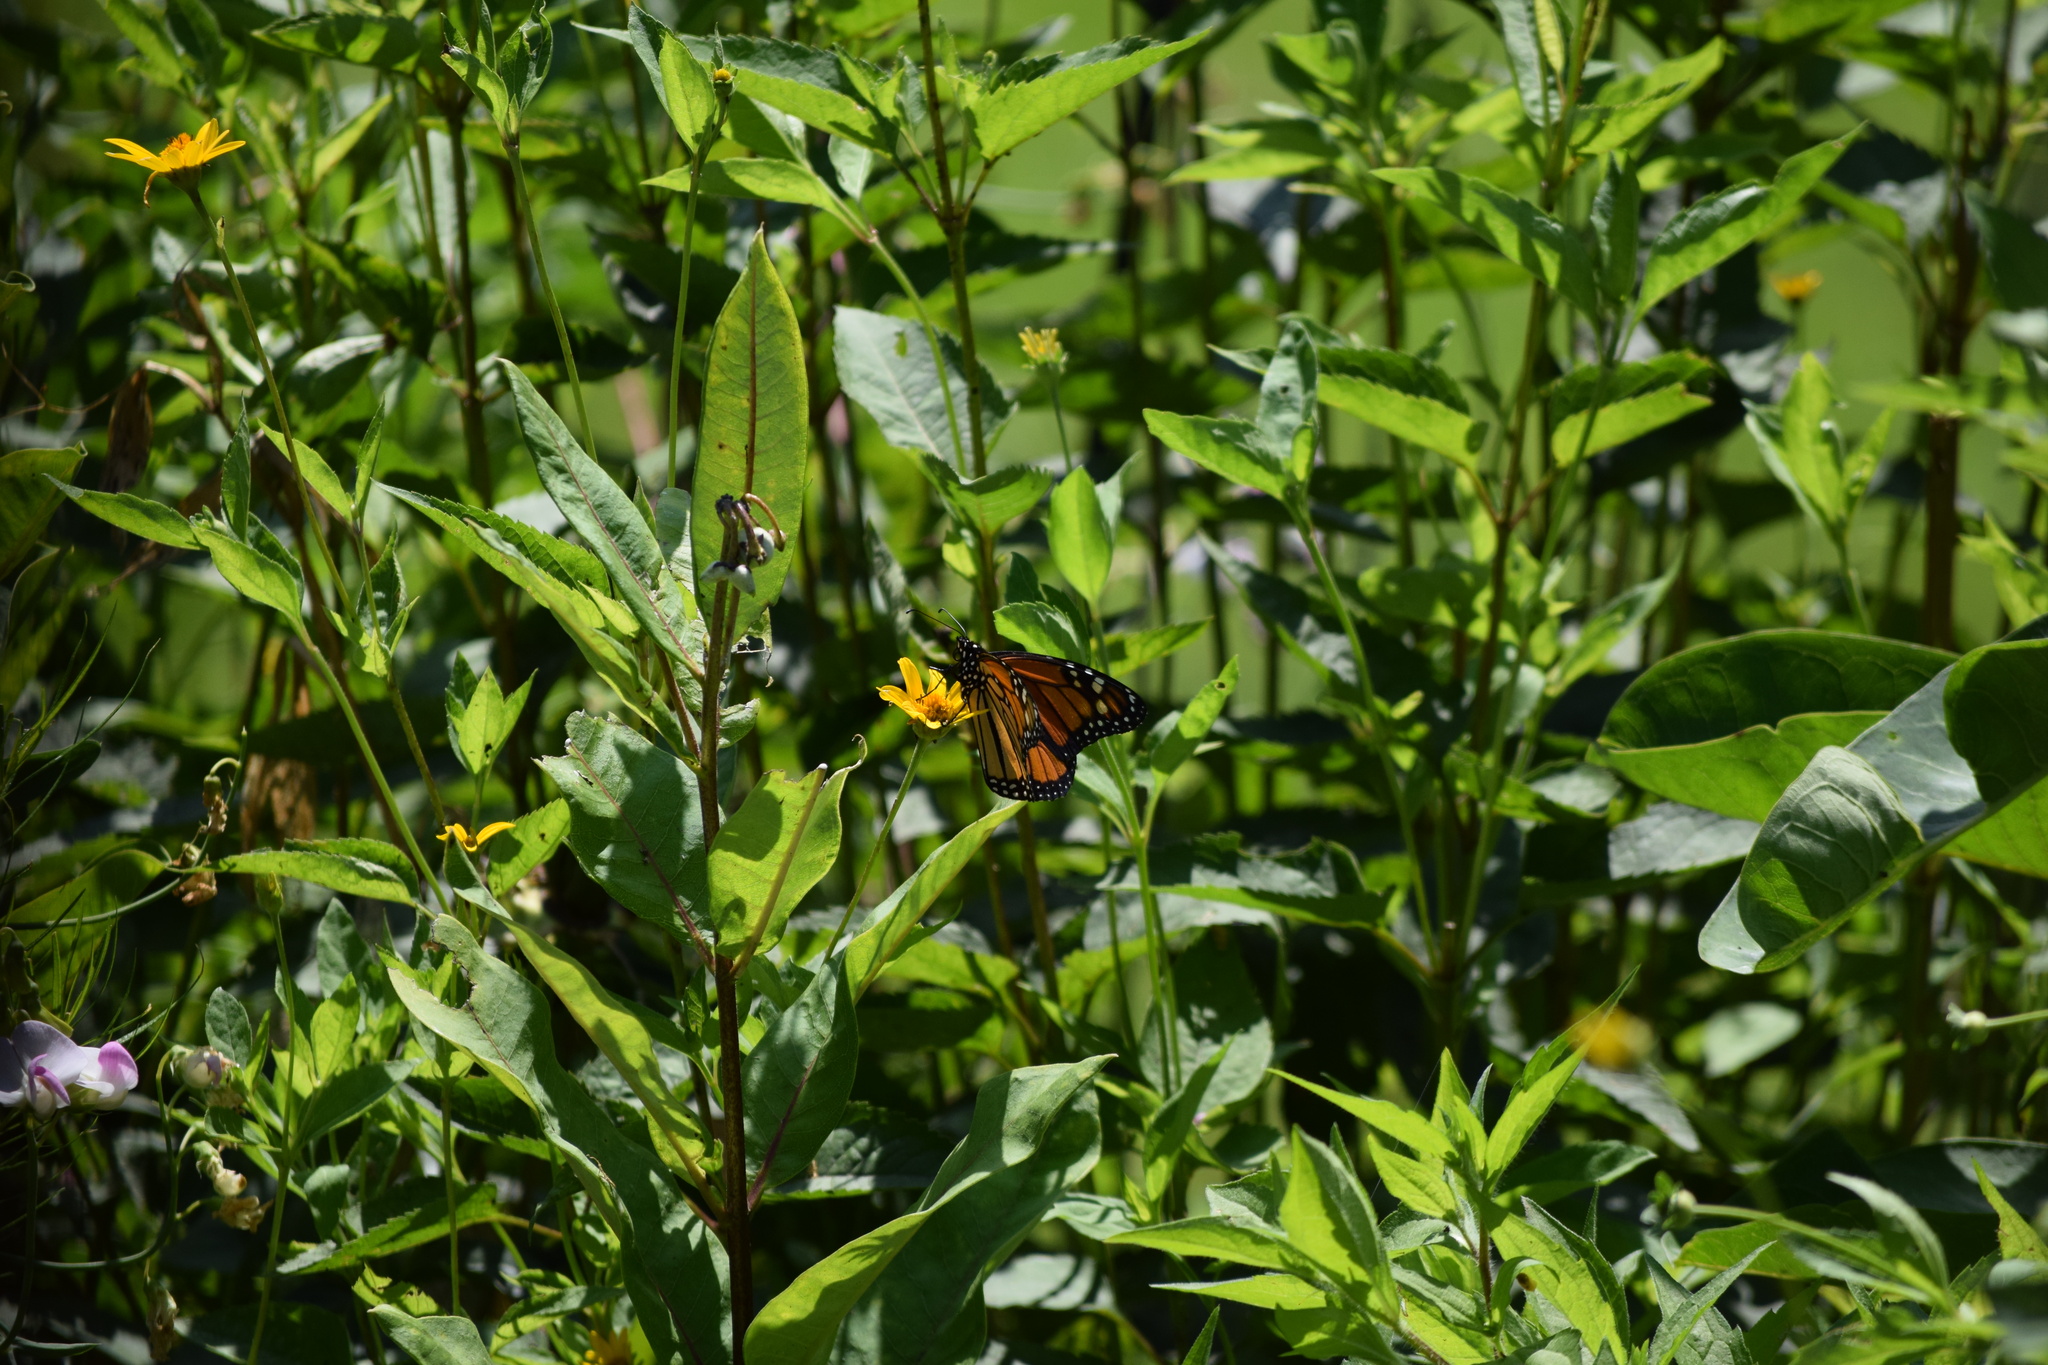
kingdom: Animalia
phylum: Arthropoda
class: Insecta
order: Lepidoptera
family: Nymphalidae
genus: Danaus
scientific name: Danaus plexippus
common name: Monarch
